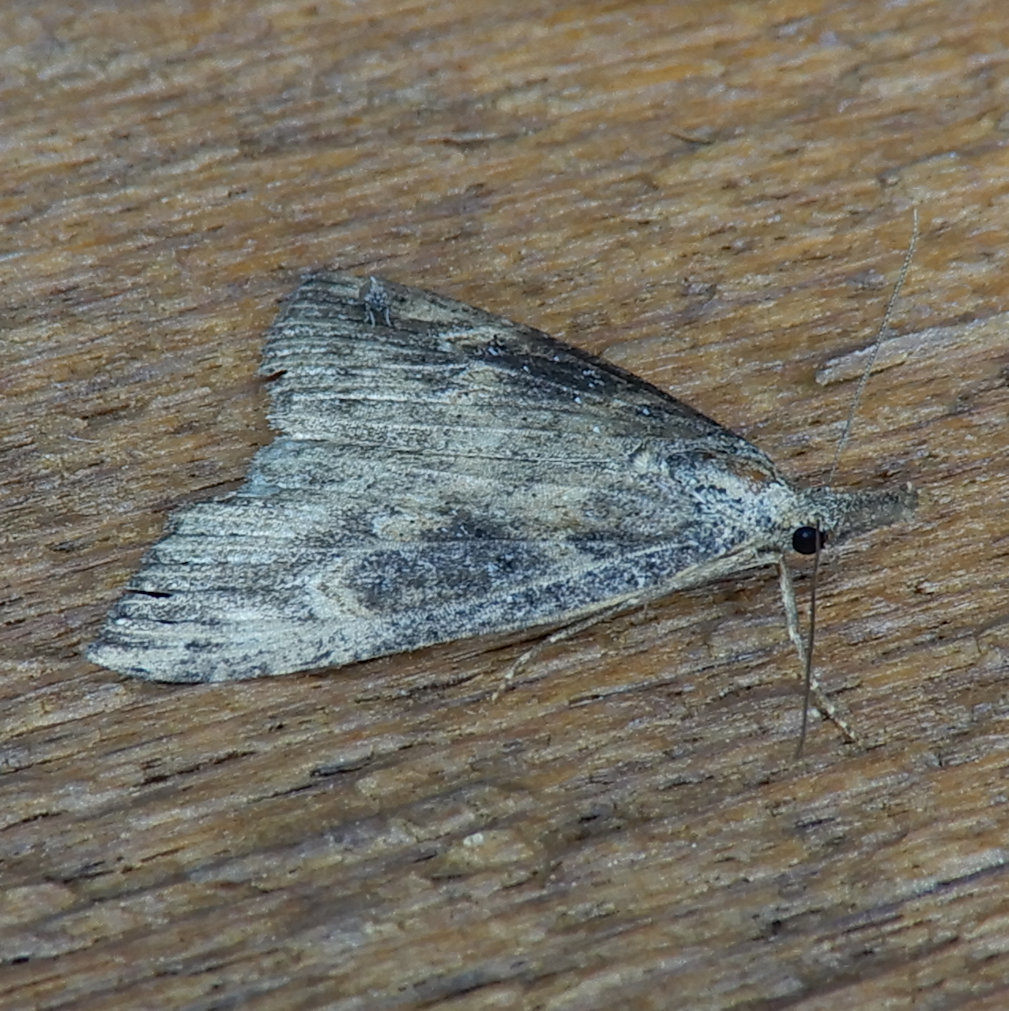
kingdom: Animalia
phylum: Arthropoda
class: Insecta
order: Lepidoptera
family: Erebidae
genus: Hypena
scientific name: Hypena humuli
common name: Hop vine snout
